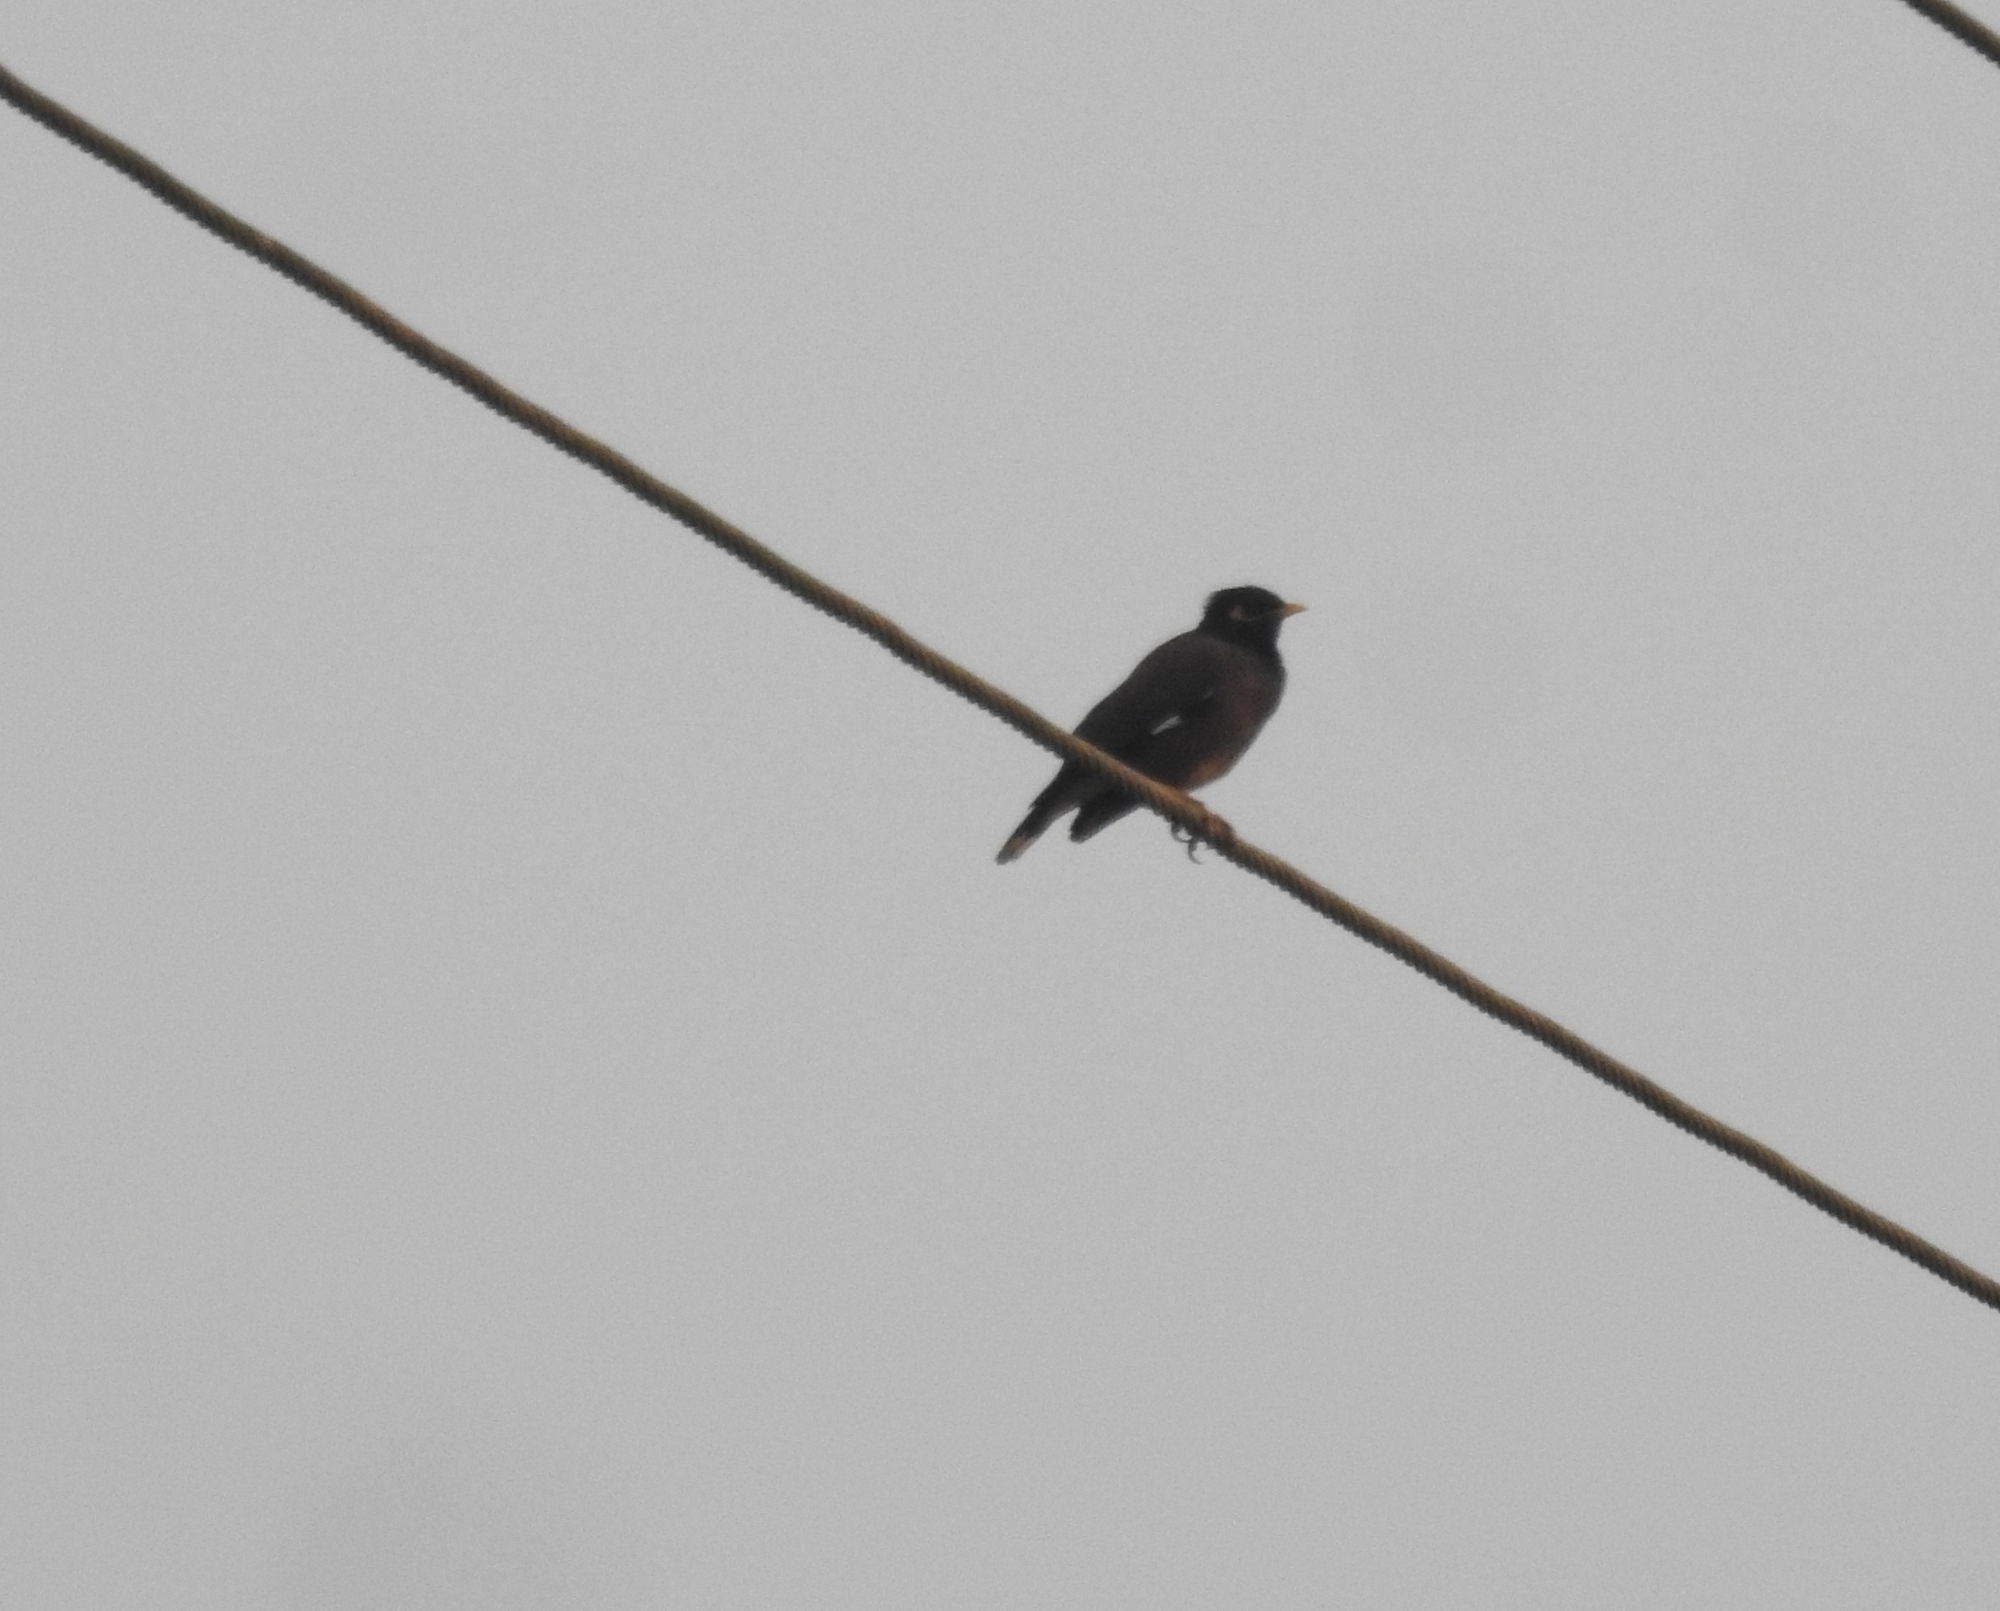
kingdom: Animalia
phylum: Chordata
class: Aves
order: Passeriformes
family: Sturnidae
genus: Acridotheres
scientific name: Acridotheres tristis
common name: Common myna
